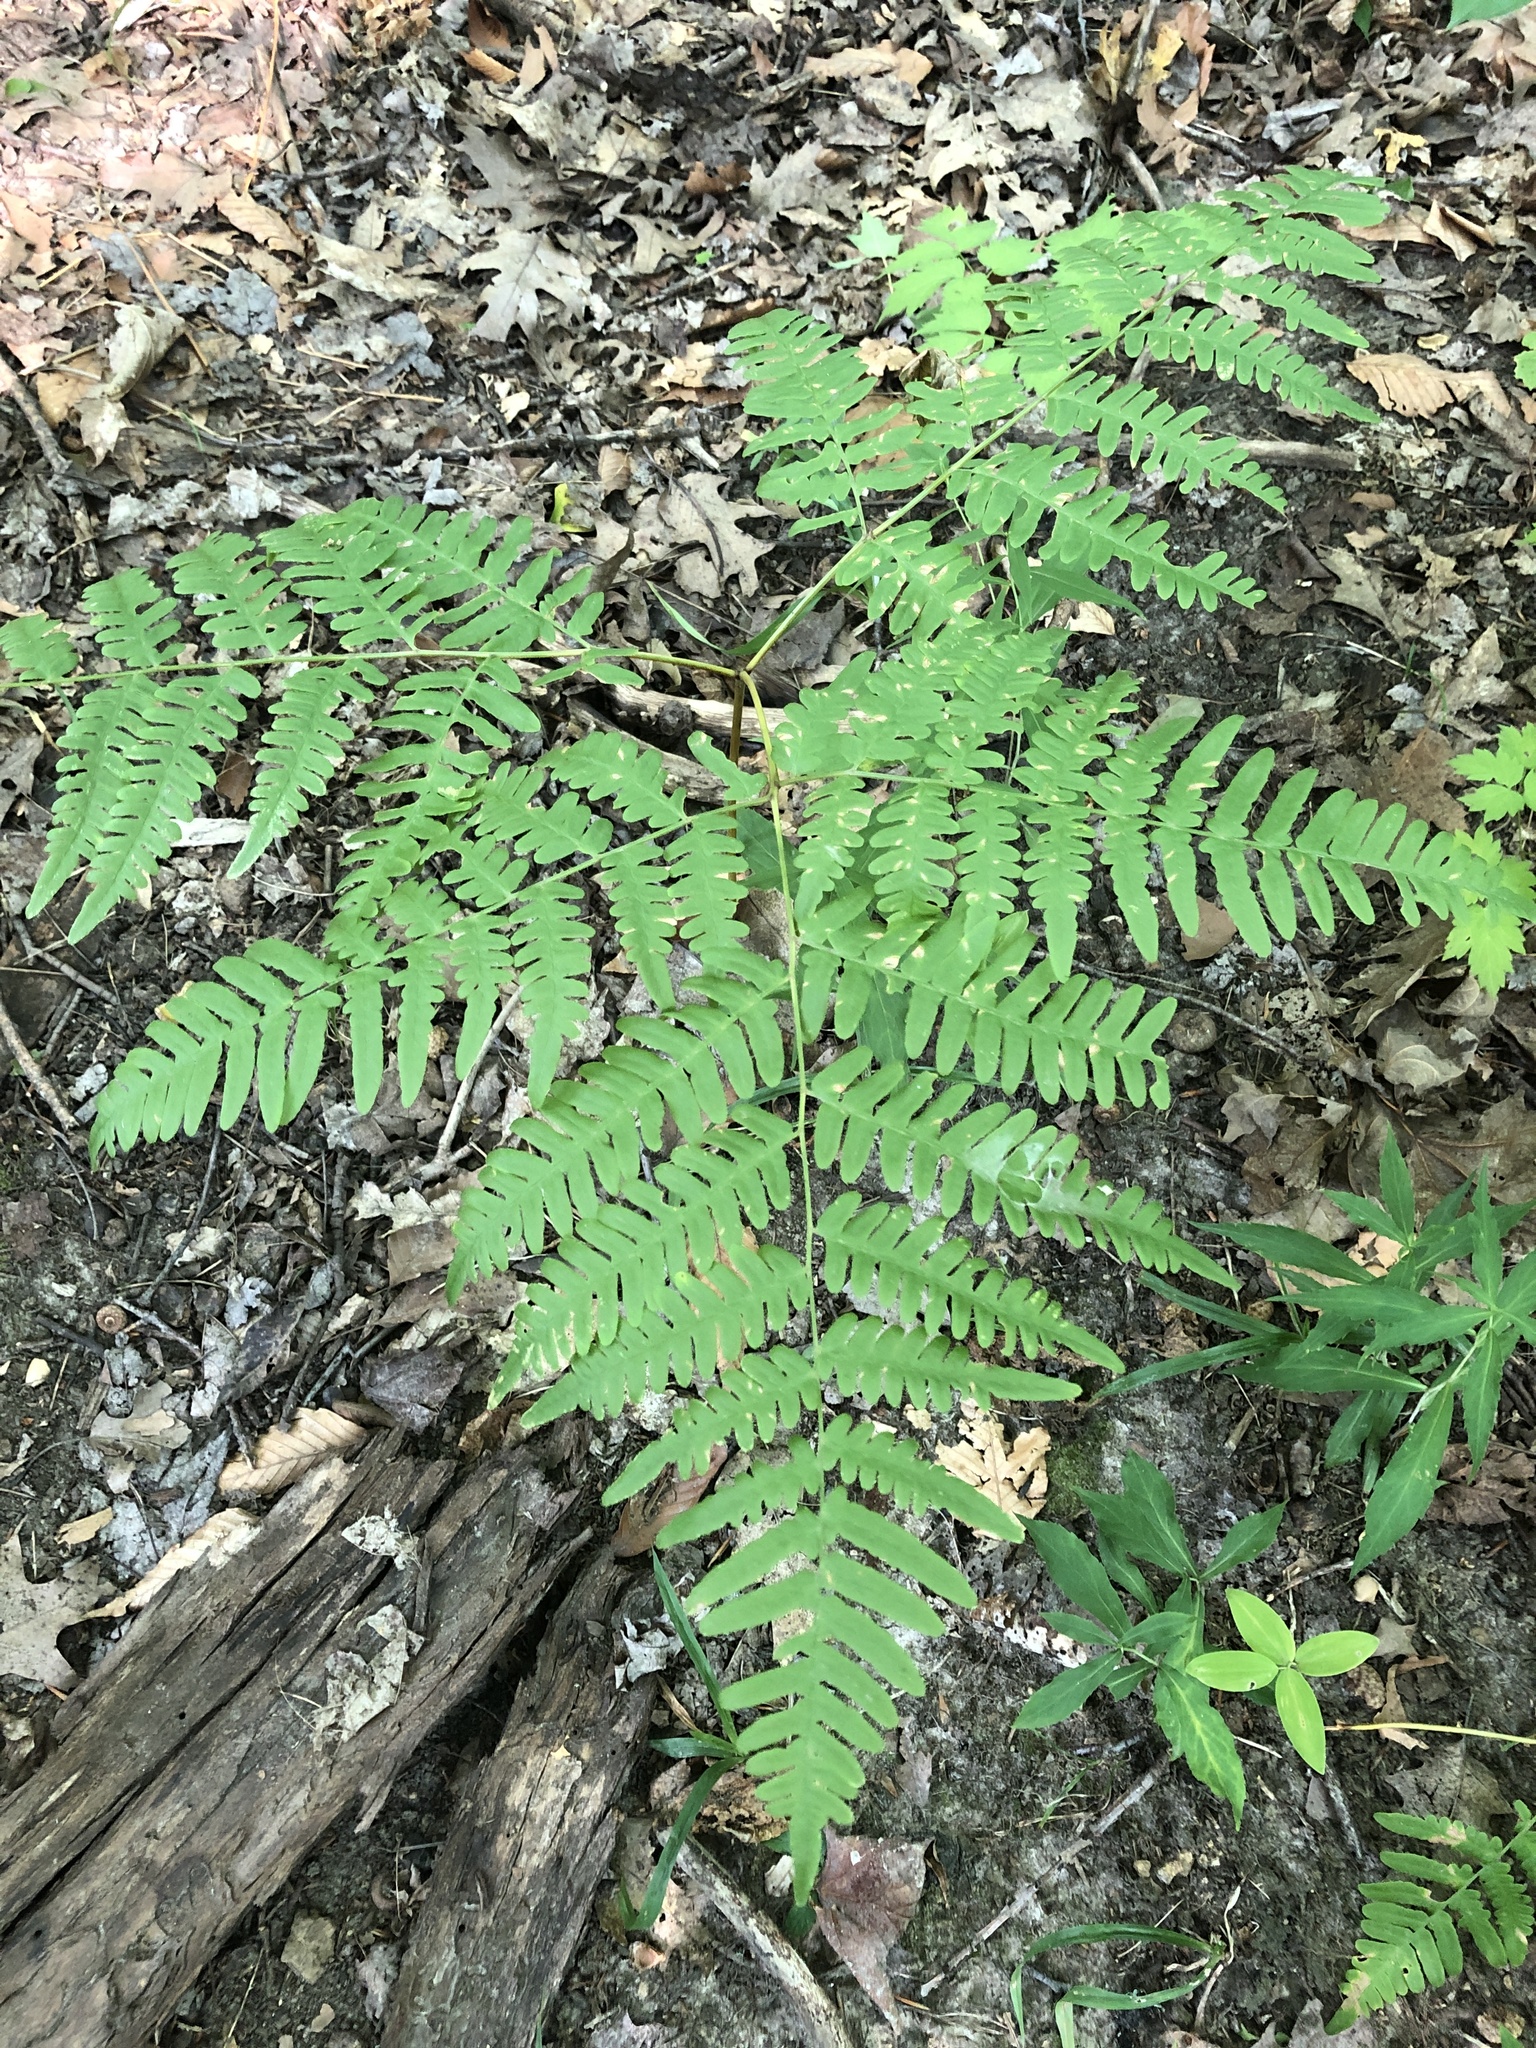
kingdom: Plantae
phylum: Tracheophyta
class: Polypodiopsida
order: Polypodiales
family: Dennstaedtiaceae
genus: Pteridium
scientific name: Pteridium aquilinum
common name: Bracken
